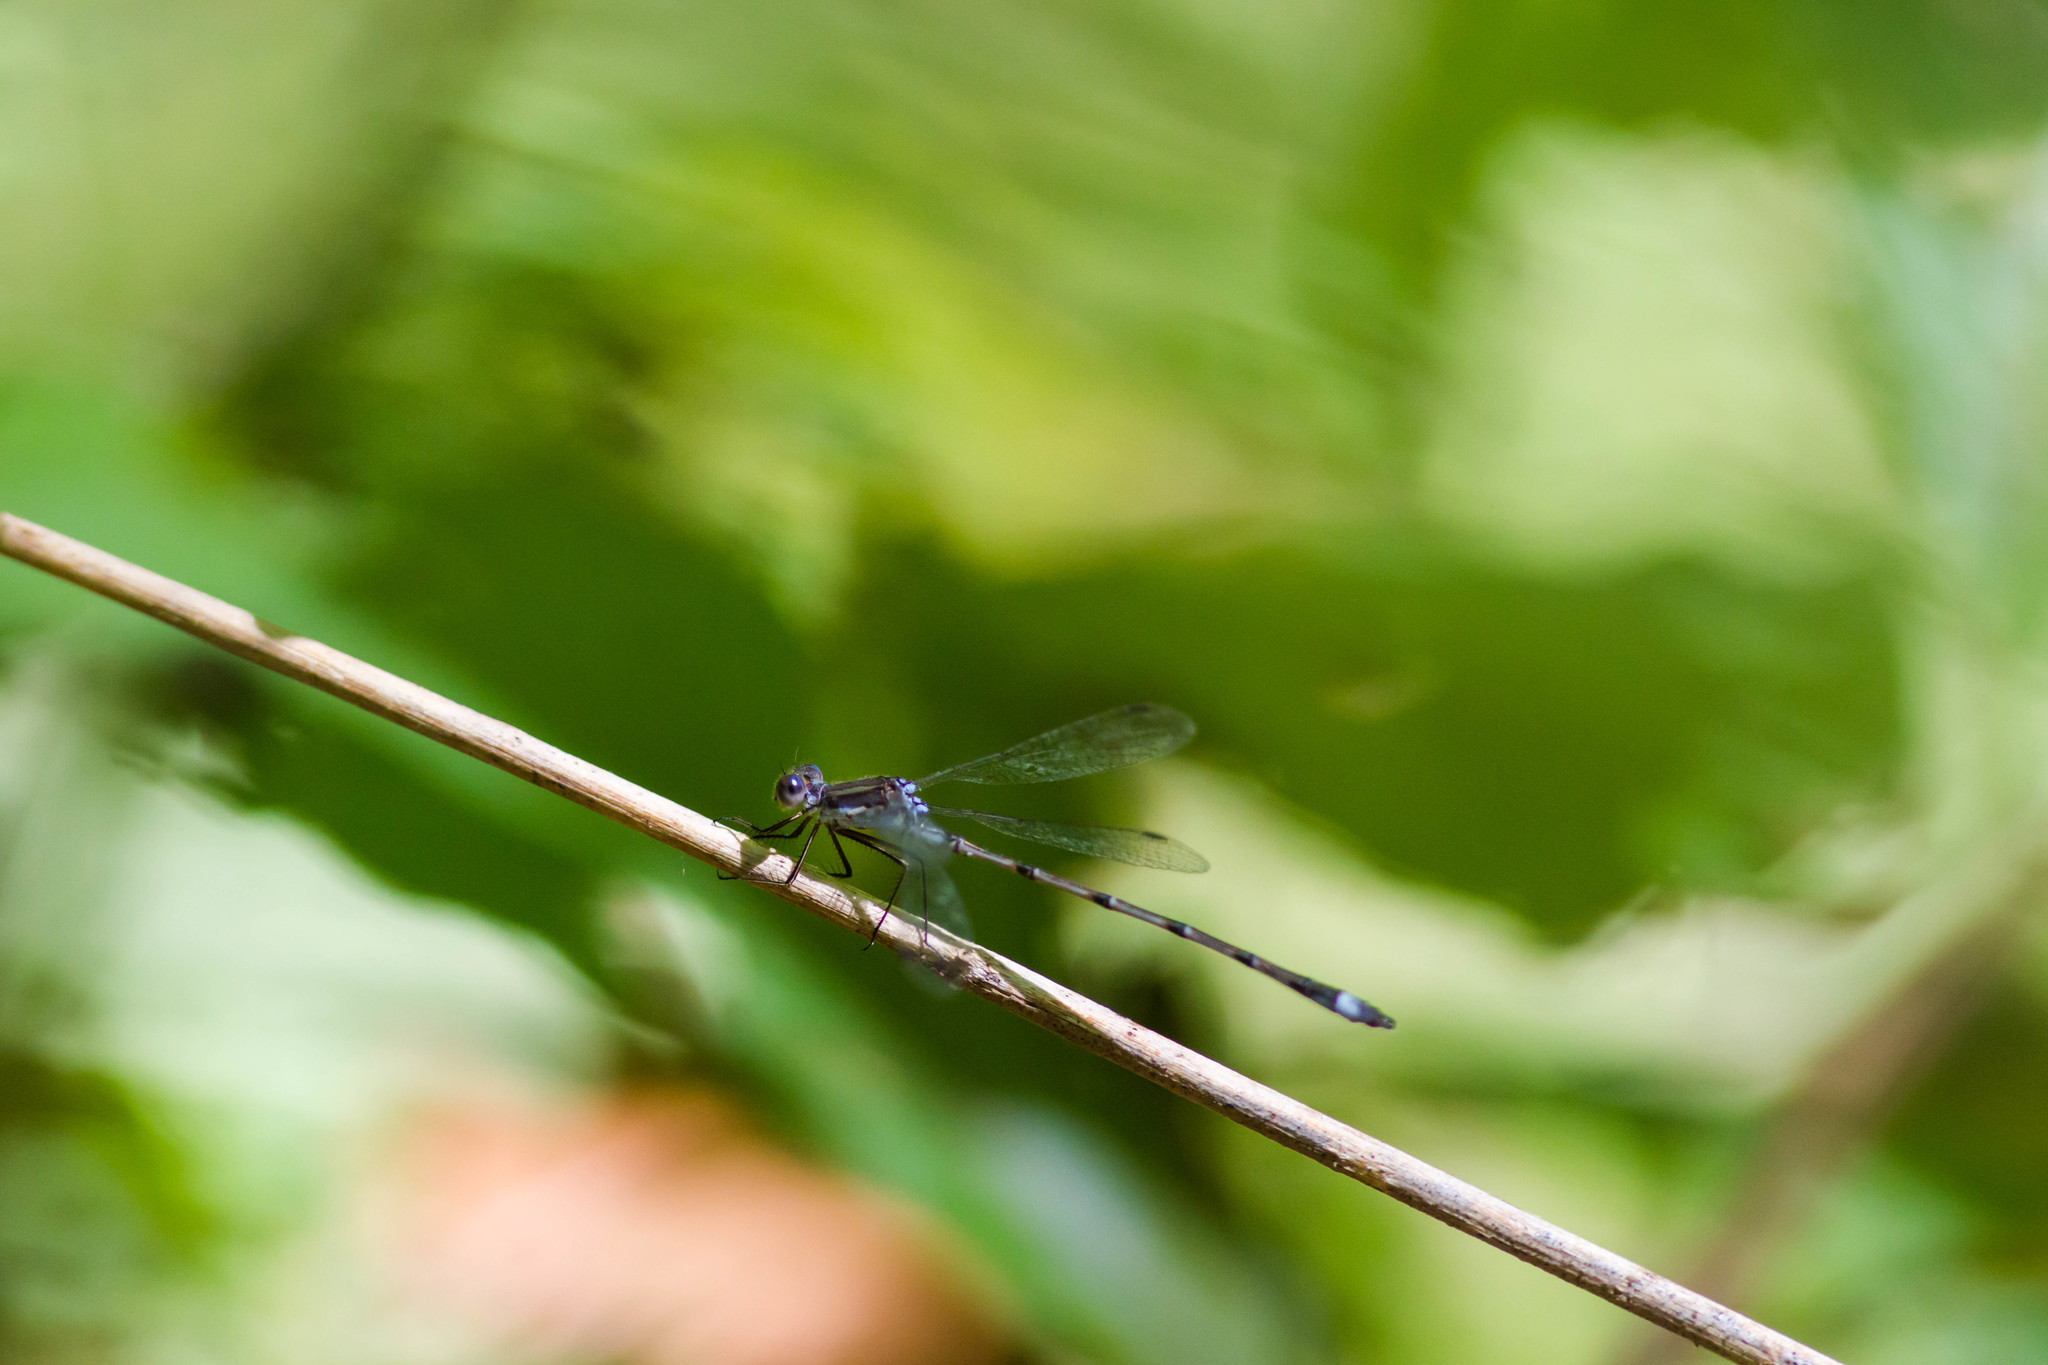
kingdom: Animalia
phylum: Arthropoda
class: Insecta
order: Odonata
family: Lestidae
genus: Lestes
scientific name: Lestes australis
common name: Southern spreadwing
